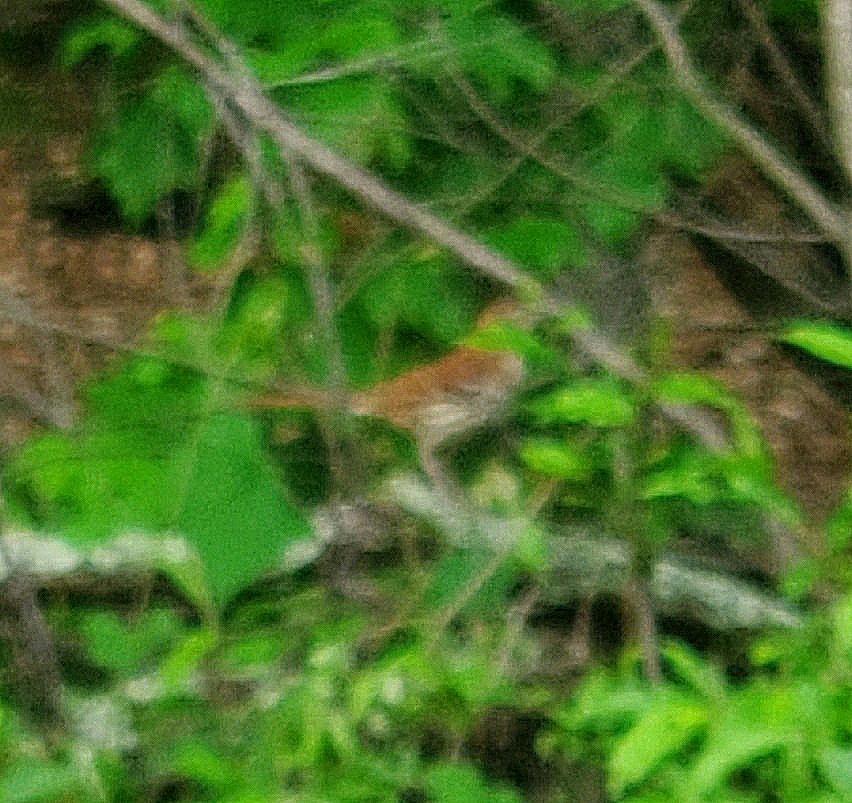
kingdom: Animalia
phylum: Chordata
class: Aves
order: Passeriformes
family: Mimidae
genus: Toxostoma
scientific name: Toxostoma rufum
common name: Brown thrasher
